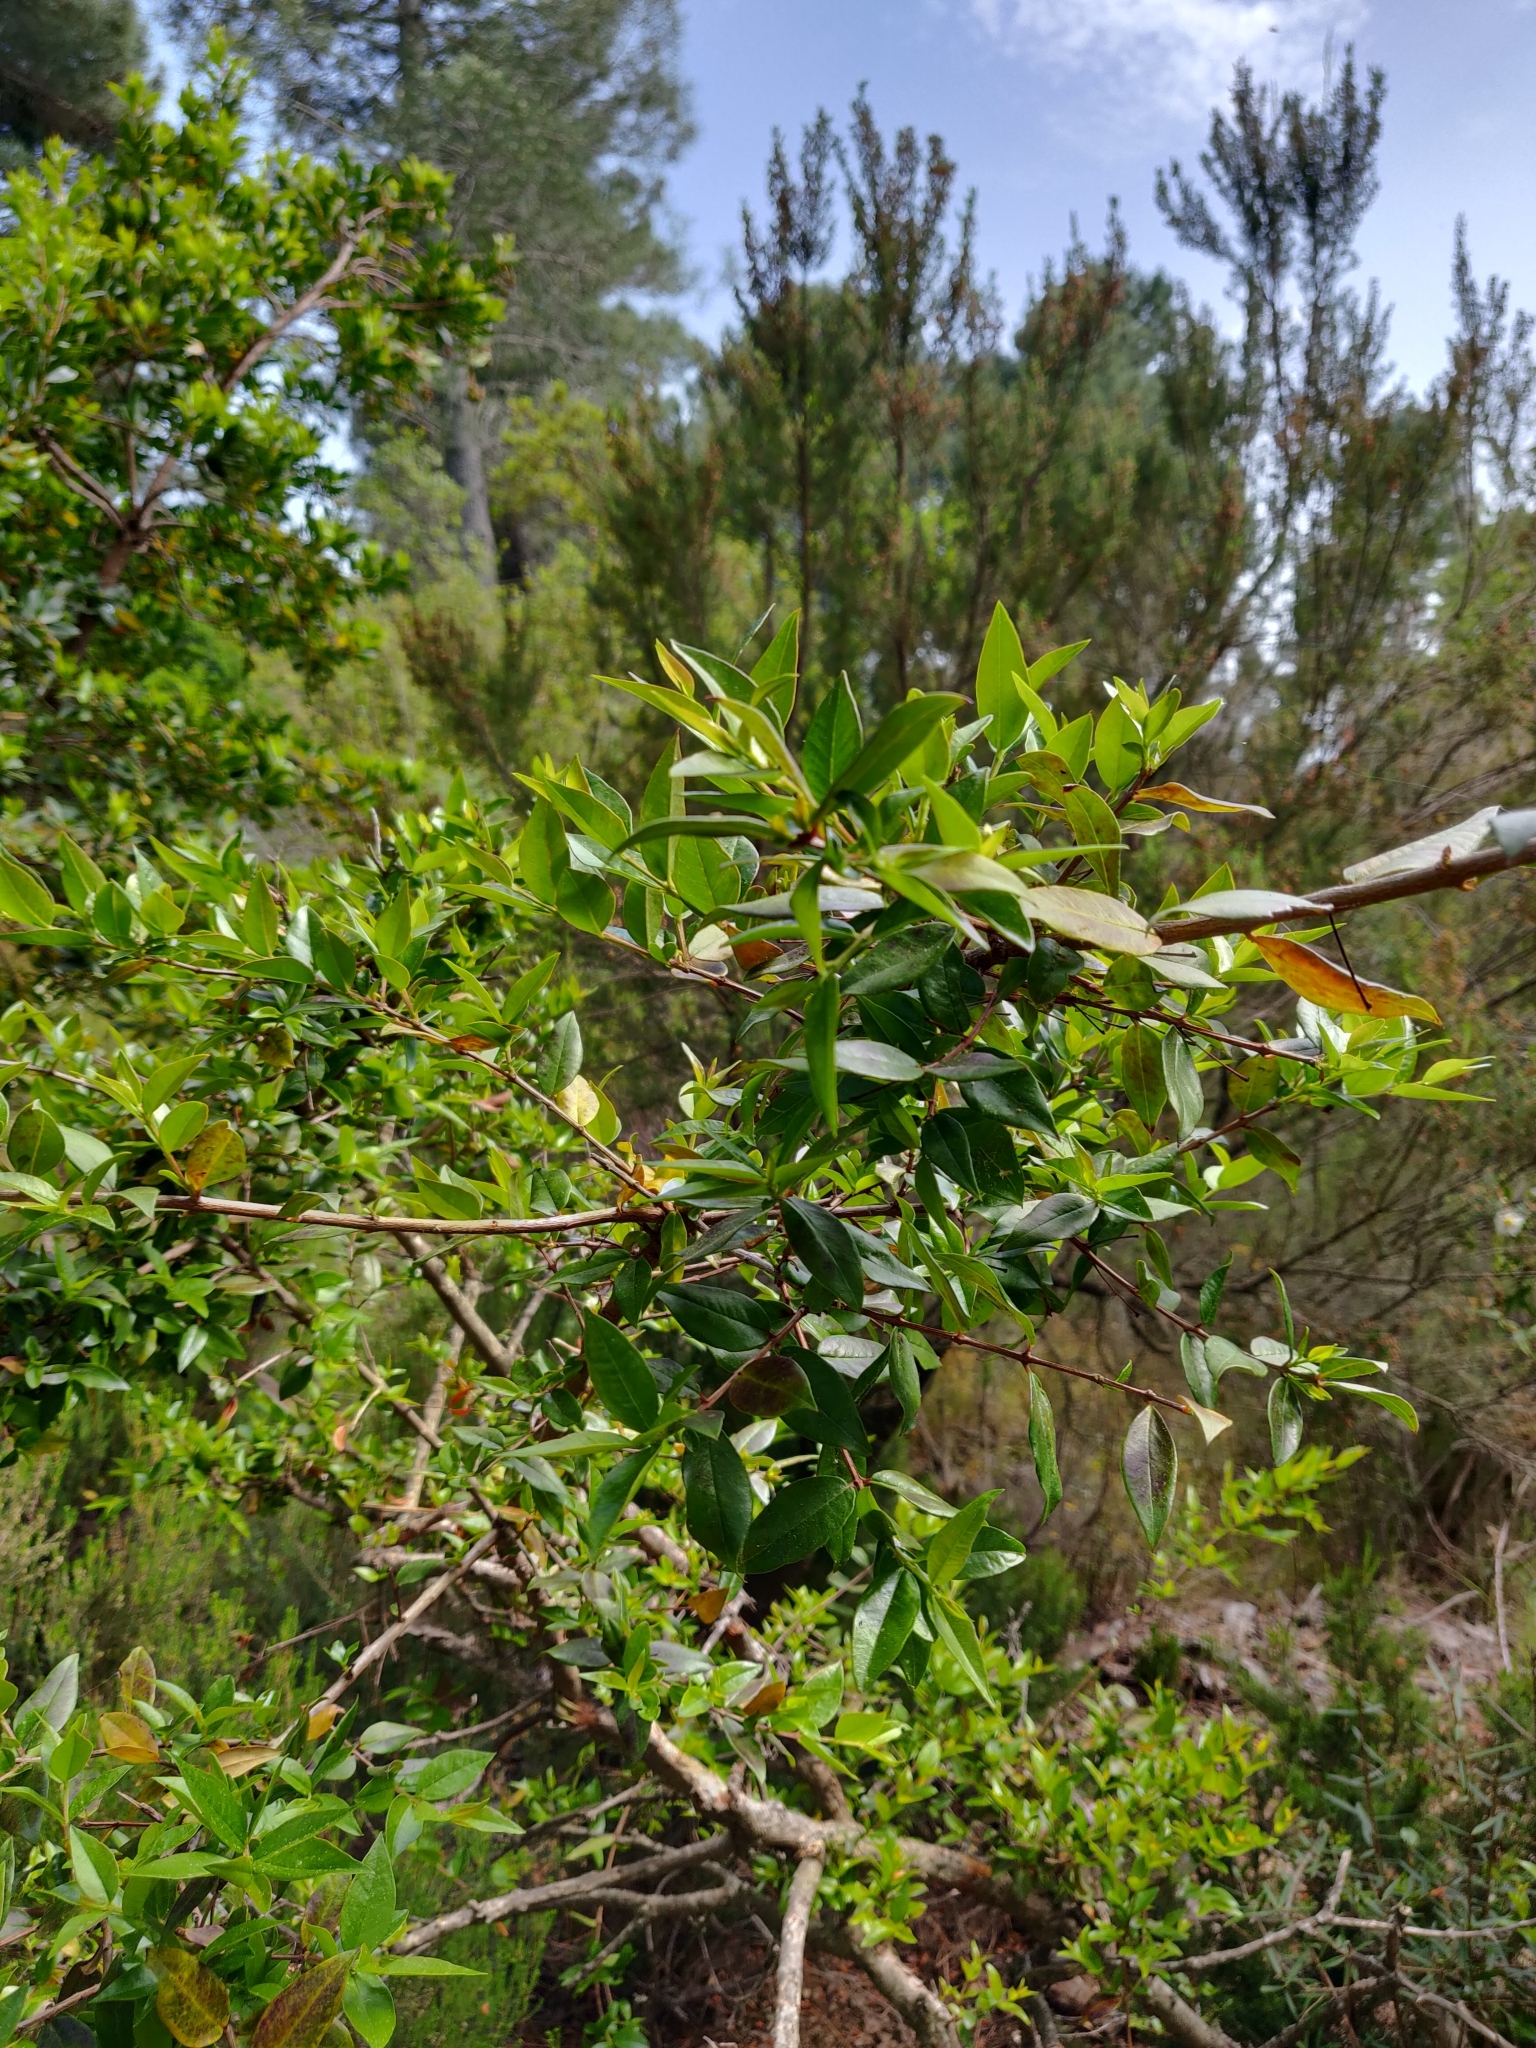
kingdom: Plantae
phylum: Tracheophyta
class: Magnoliopsida
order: Myrtales
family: Myrtaceae
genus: Myrtus
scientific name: Myrtus communis
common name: Myrtle
